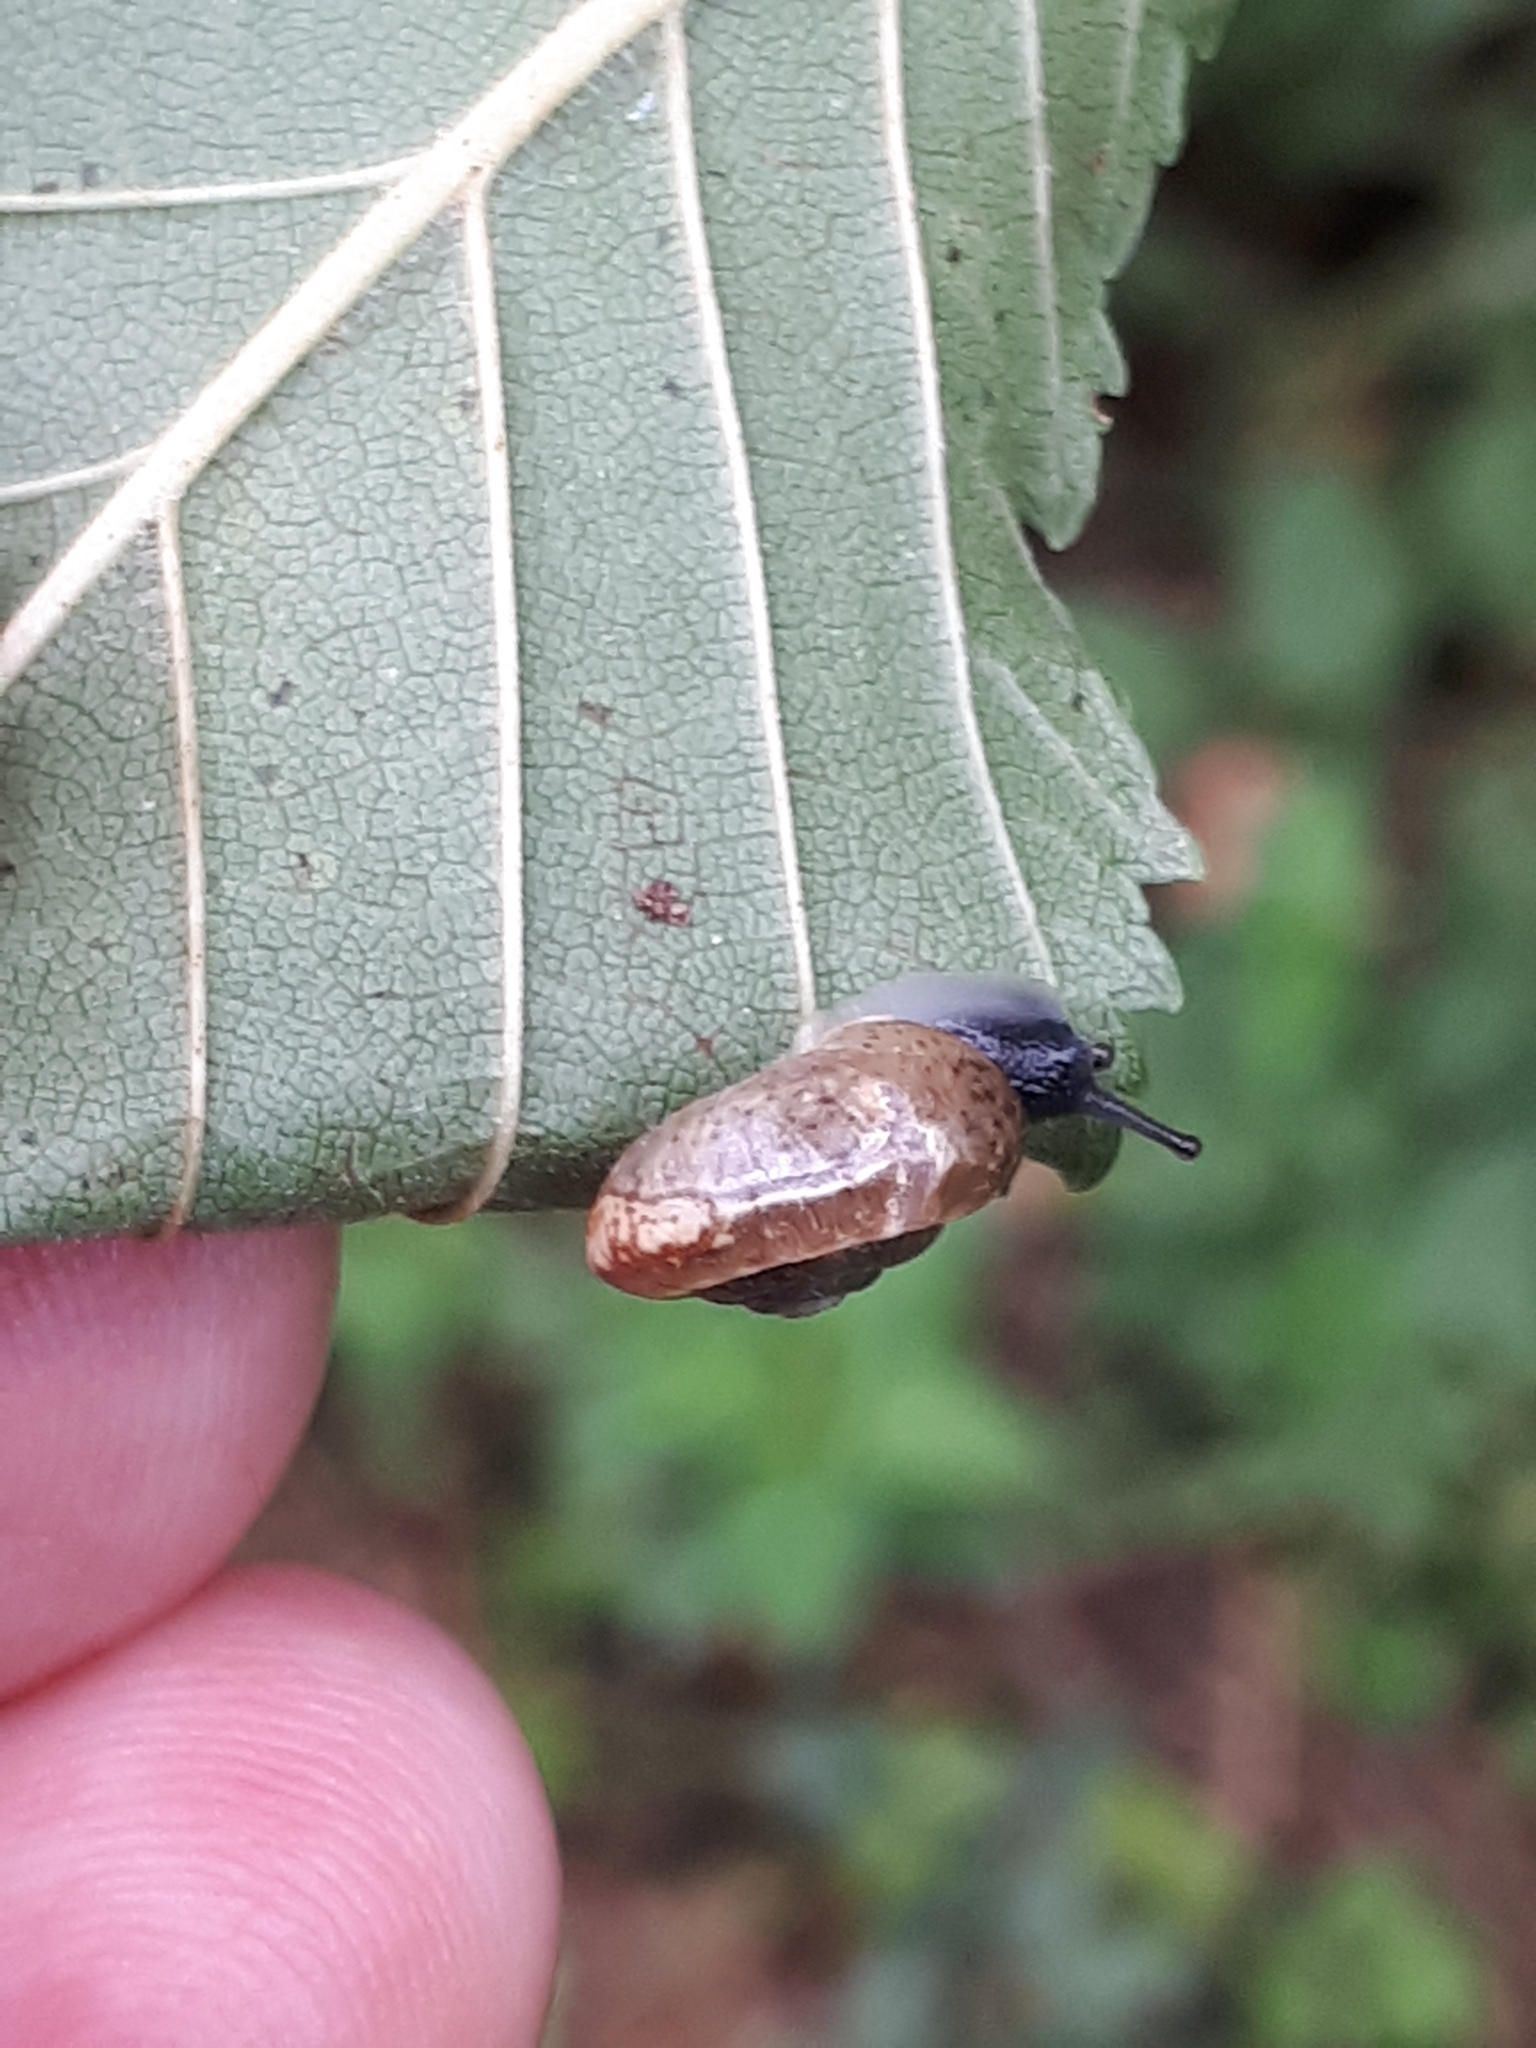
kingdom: Animalia
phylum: Mollusca
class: Gastropoda
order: Stylommatophora
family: Hygromiidae
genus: Urticicola
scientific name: Urticicola umbrosus
